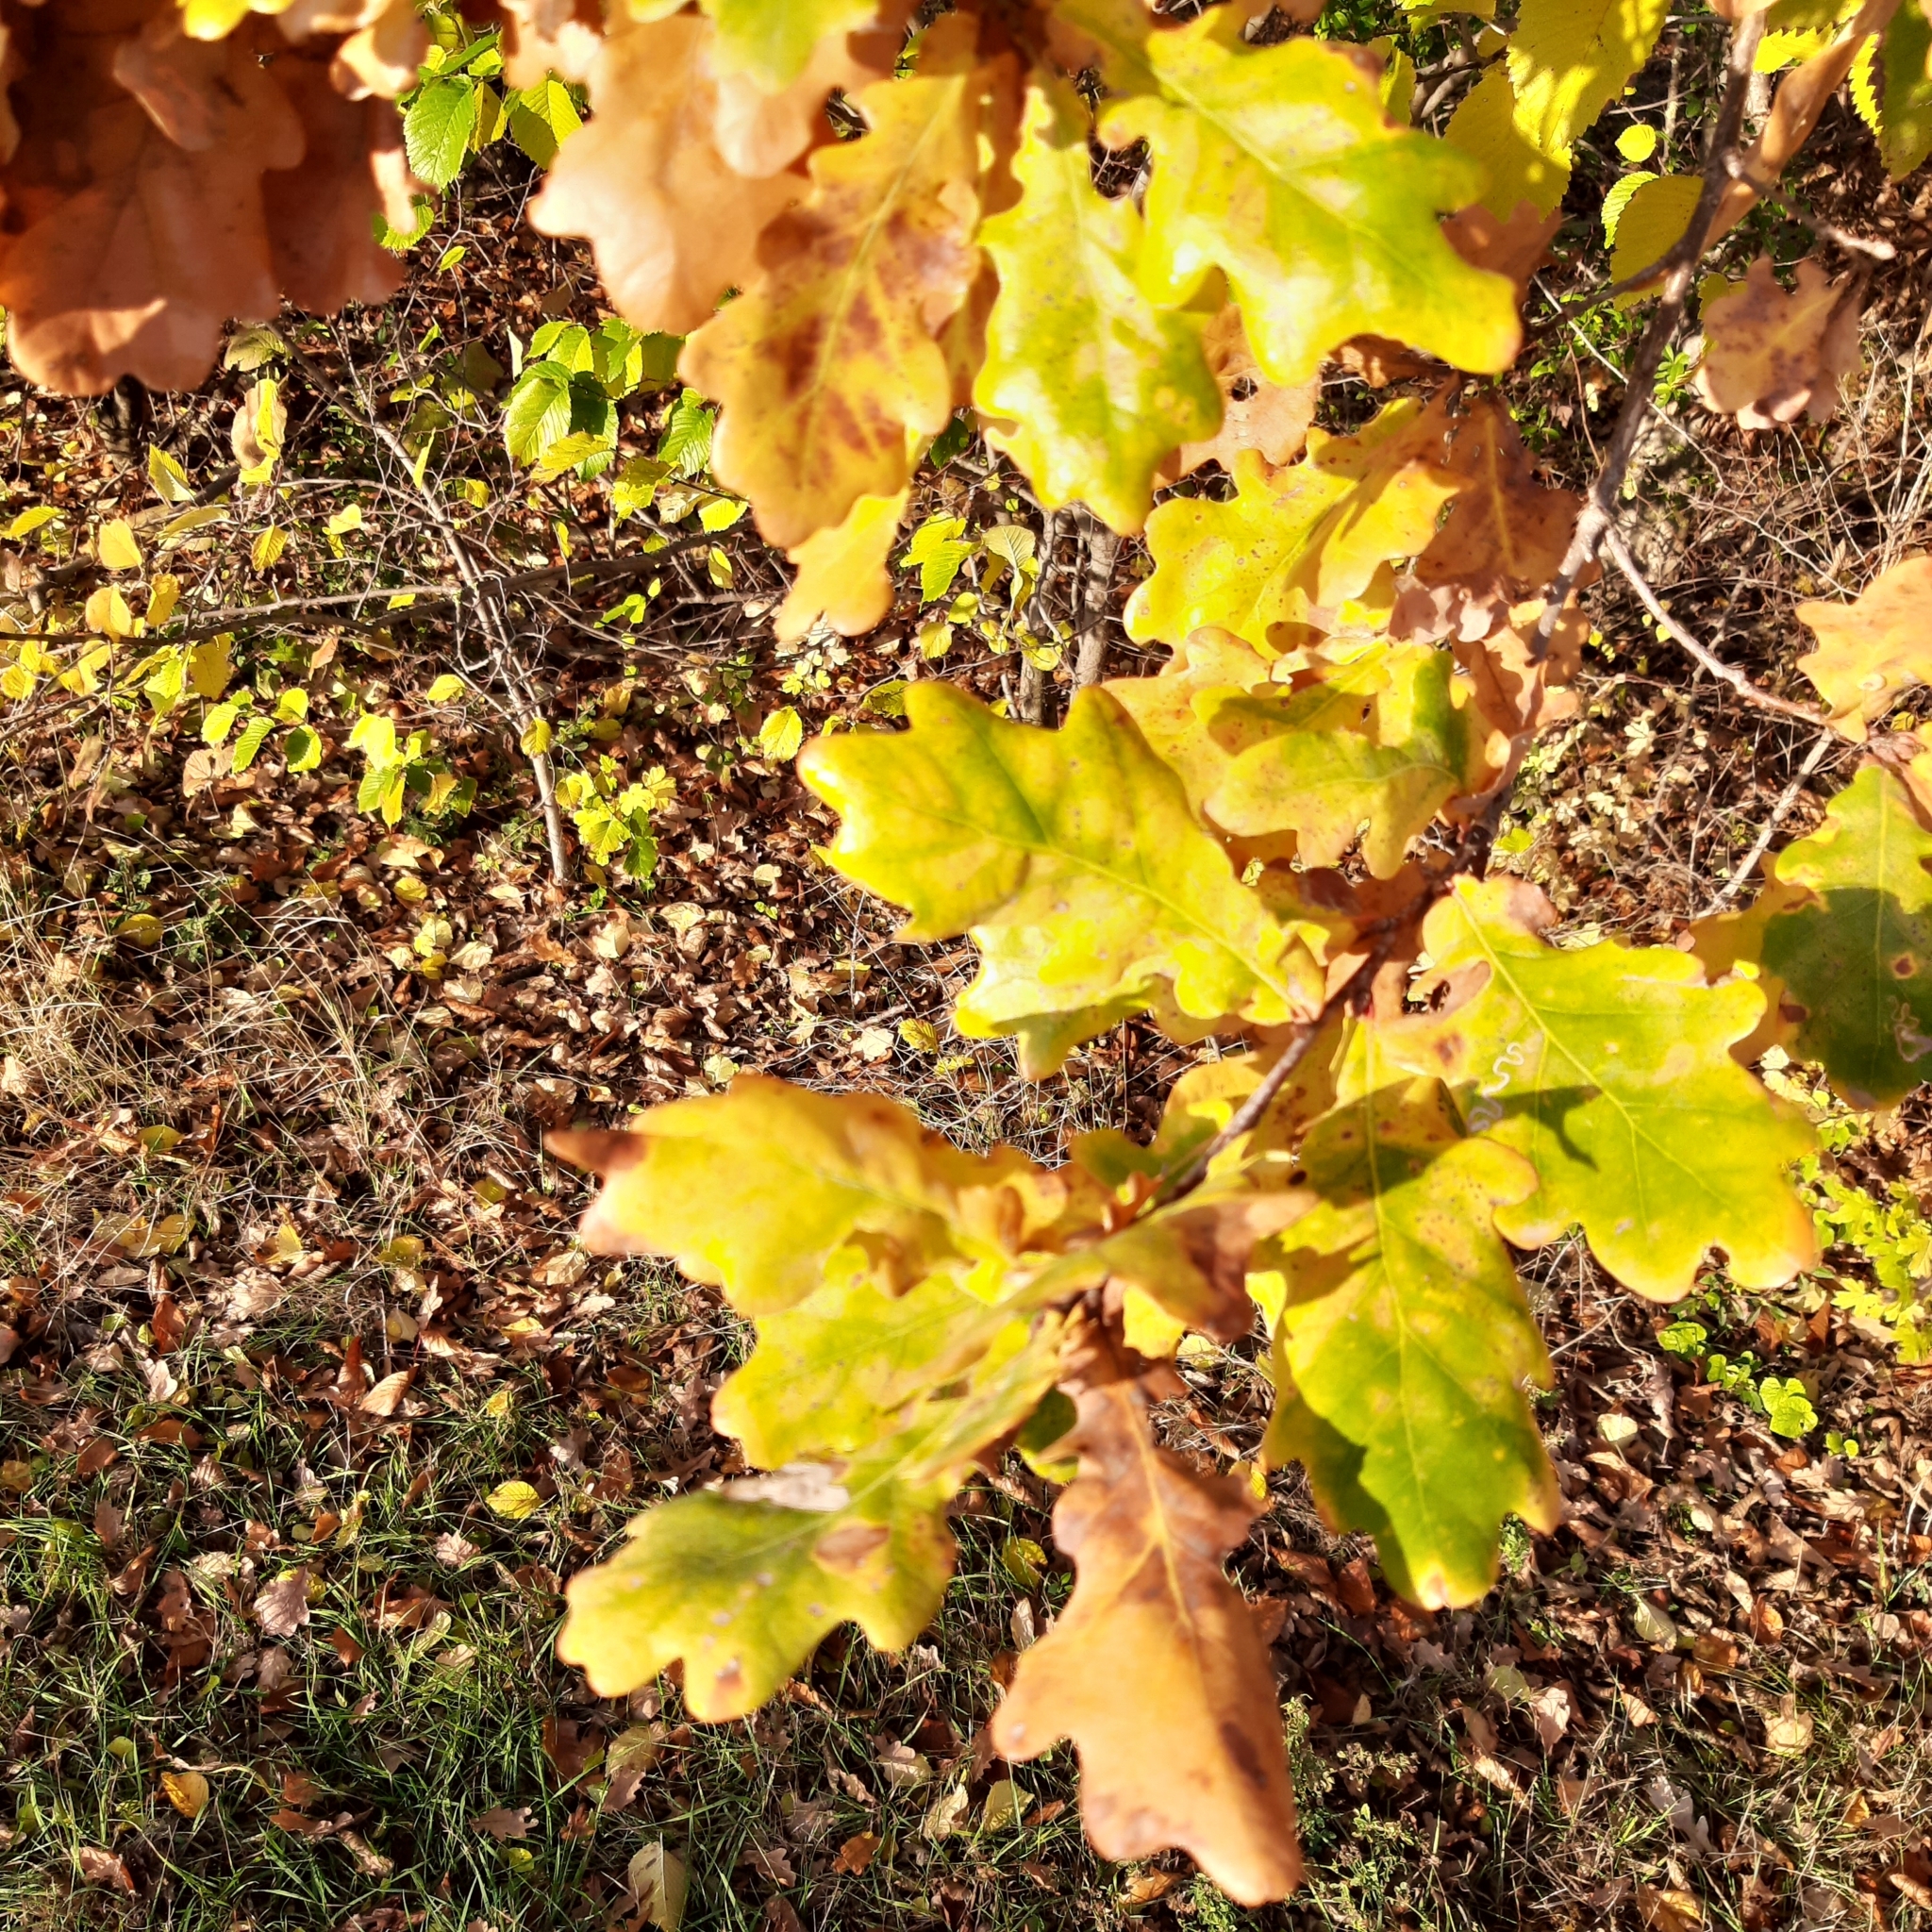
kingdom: Plantae
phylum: Tracheophyta
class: Magnoliopsida
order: Fagales
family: Fagaceae
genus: Quercus
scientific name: Quercus robur
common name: Pedunculate oak
